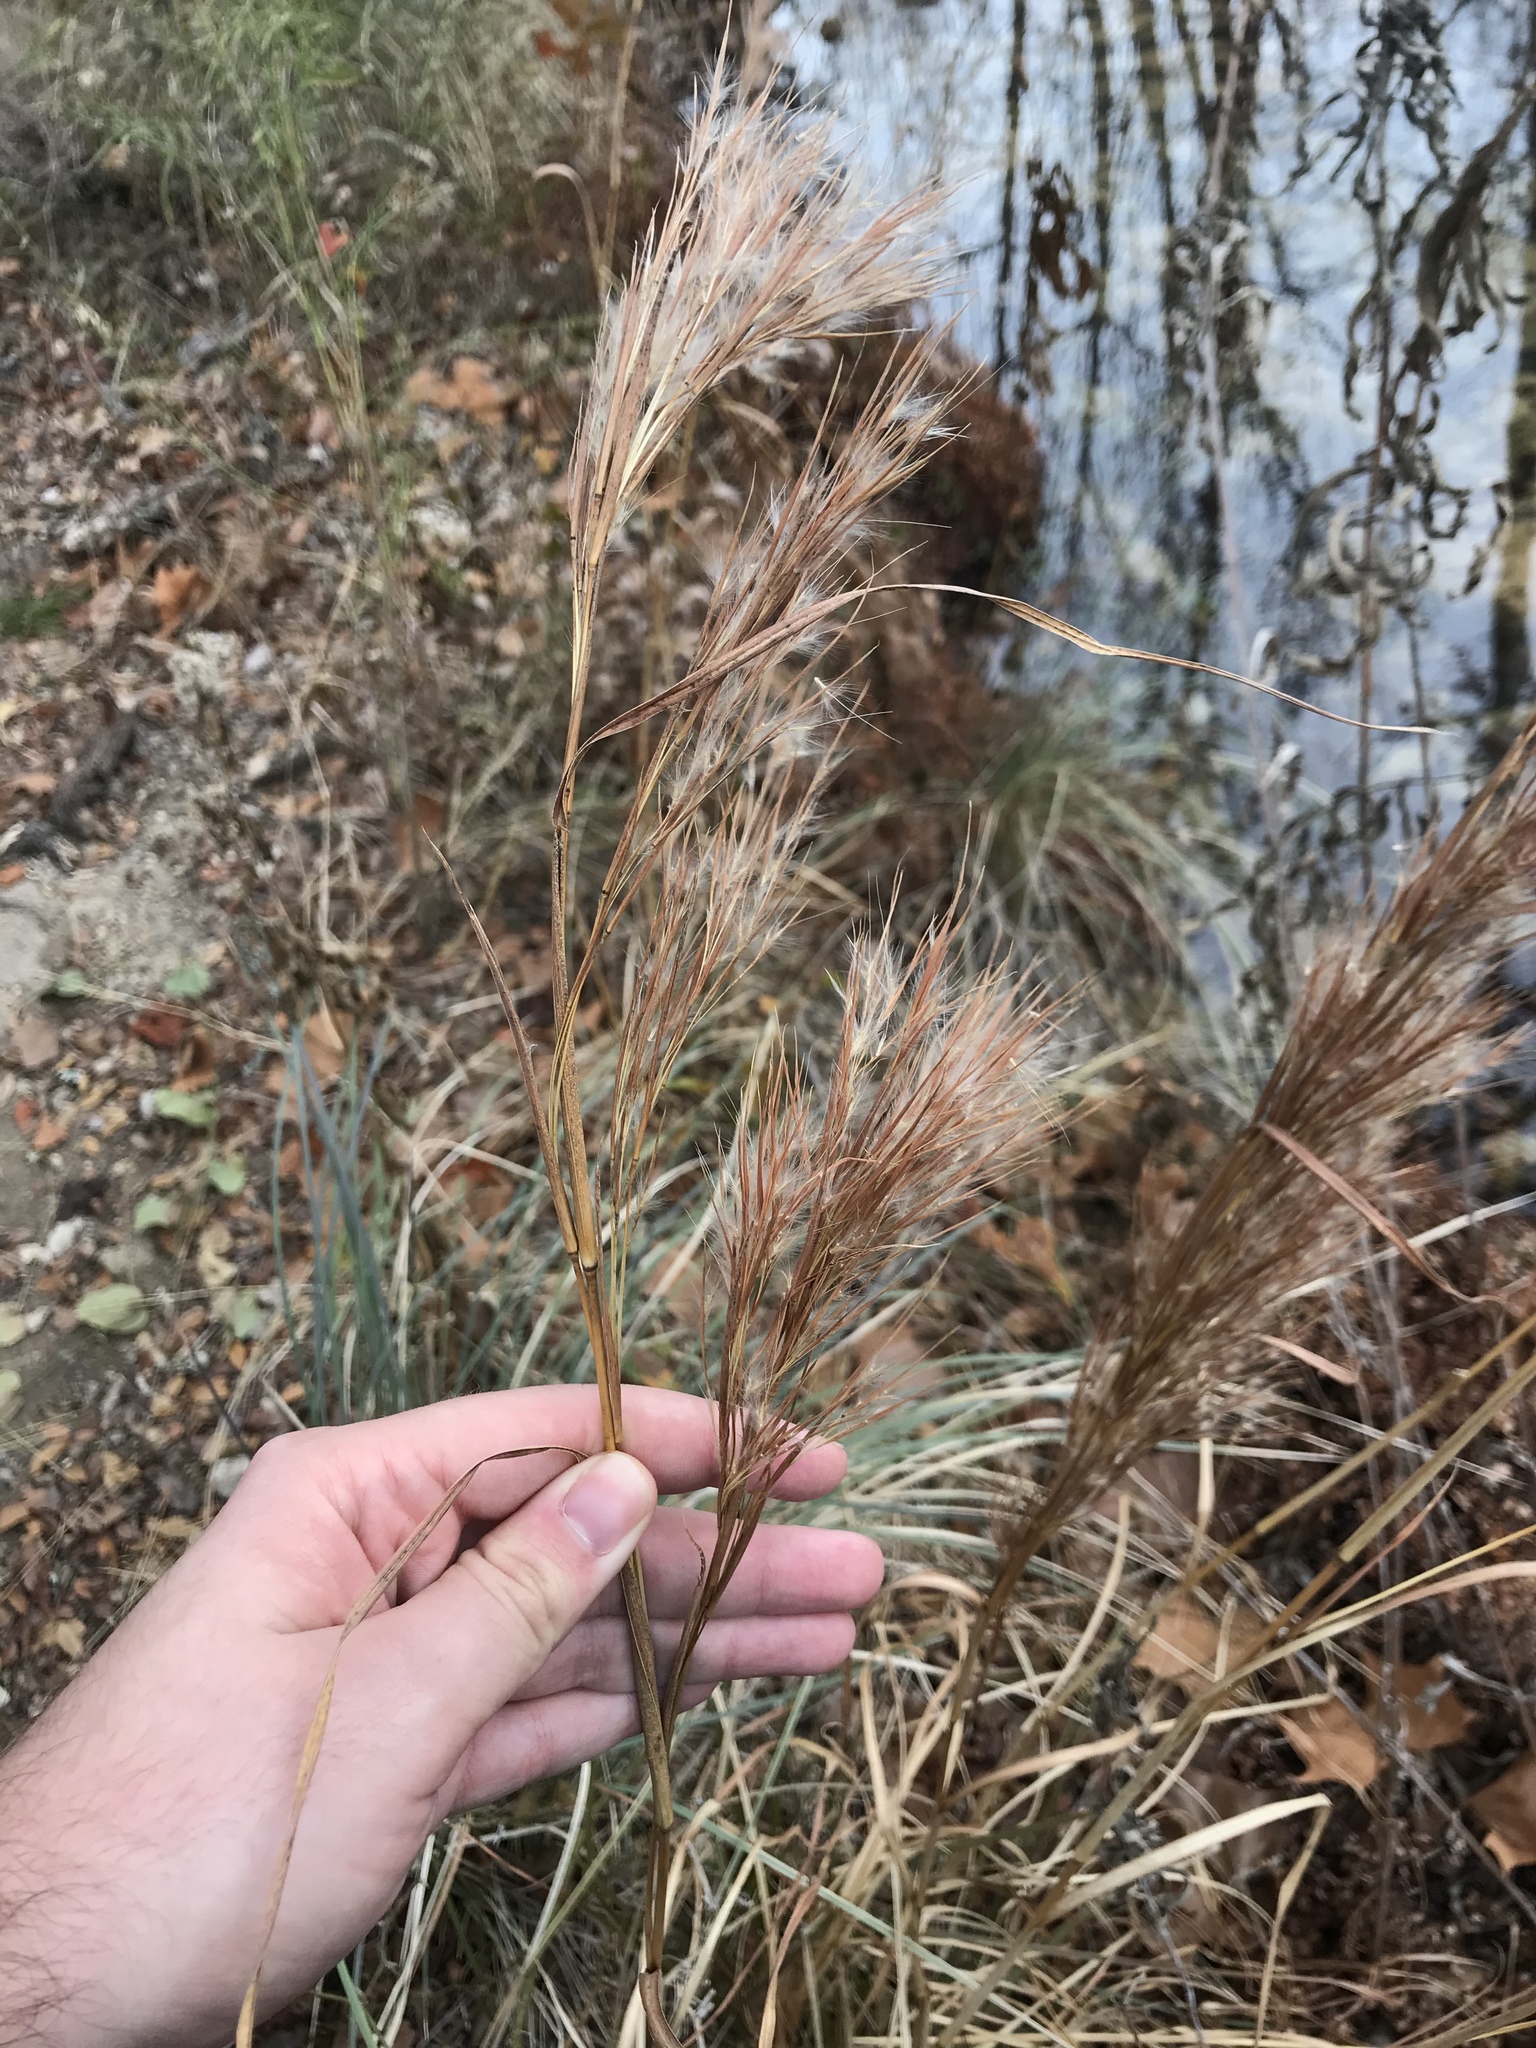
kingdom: Plantae
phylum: Tracheophyta
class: Liliopsida
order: Poales
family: Poaceae
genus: Andropogon
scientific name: Andropogon tenuispatheus
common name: Bushy bluestem
